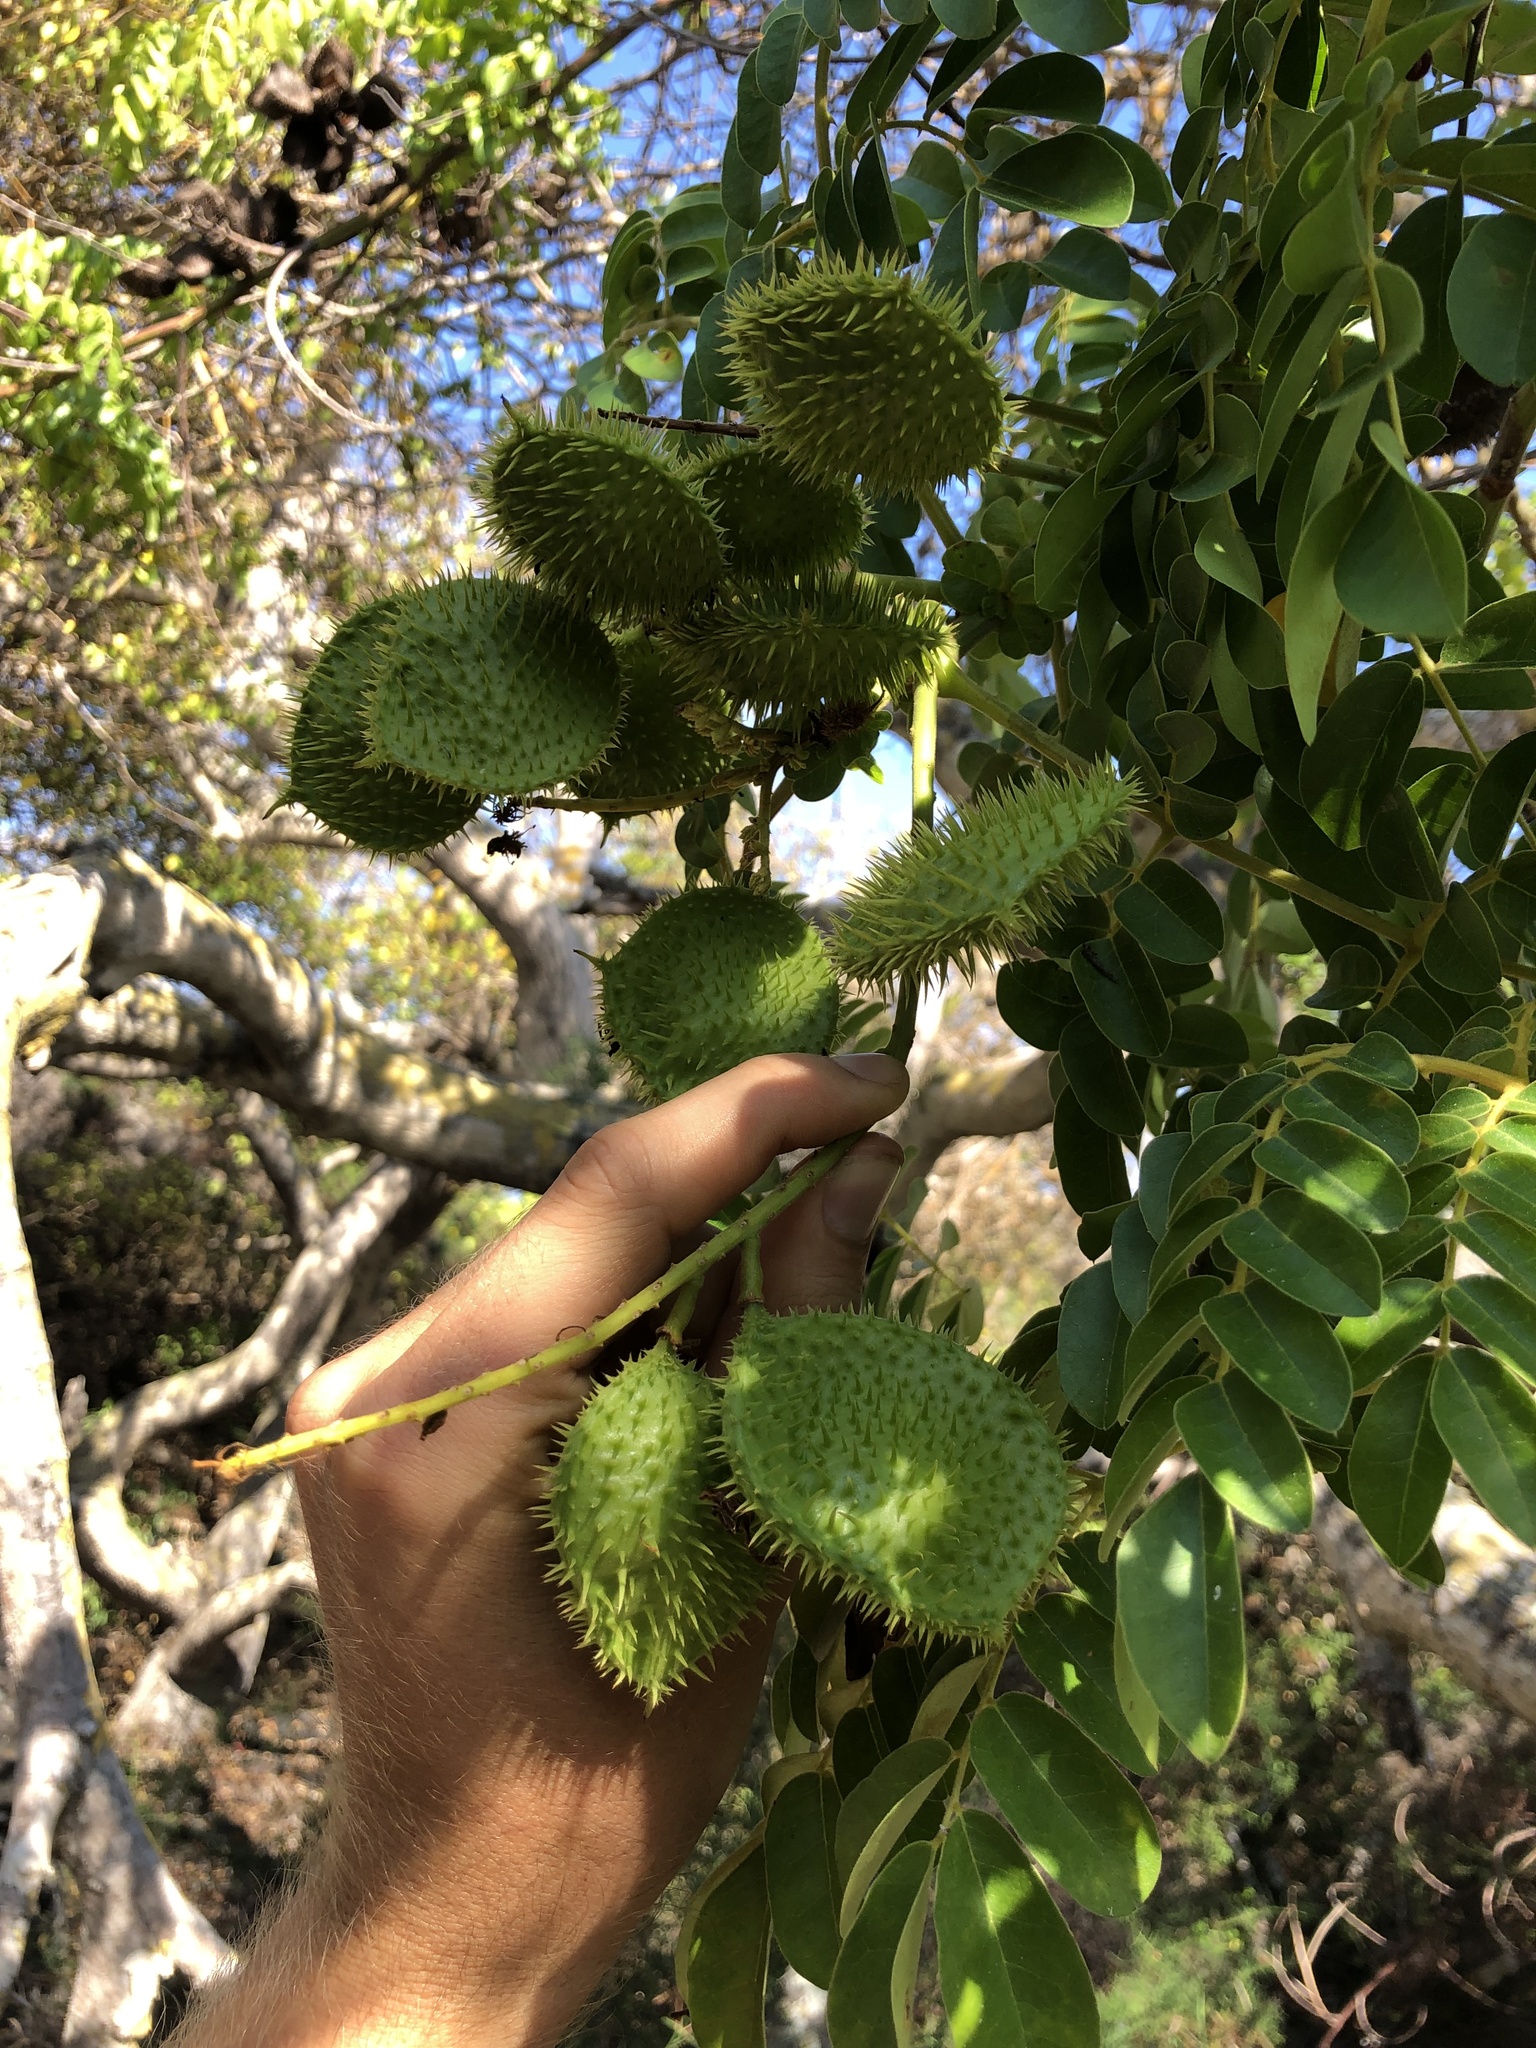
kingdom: Plantae
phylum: Tracheophyta
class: Magnoliopsida
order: Fabales
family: Fabaceae
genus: Guilandina
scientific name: Guilandina bonduc
